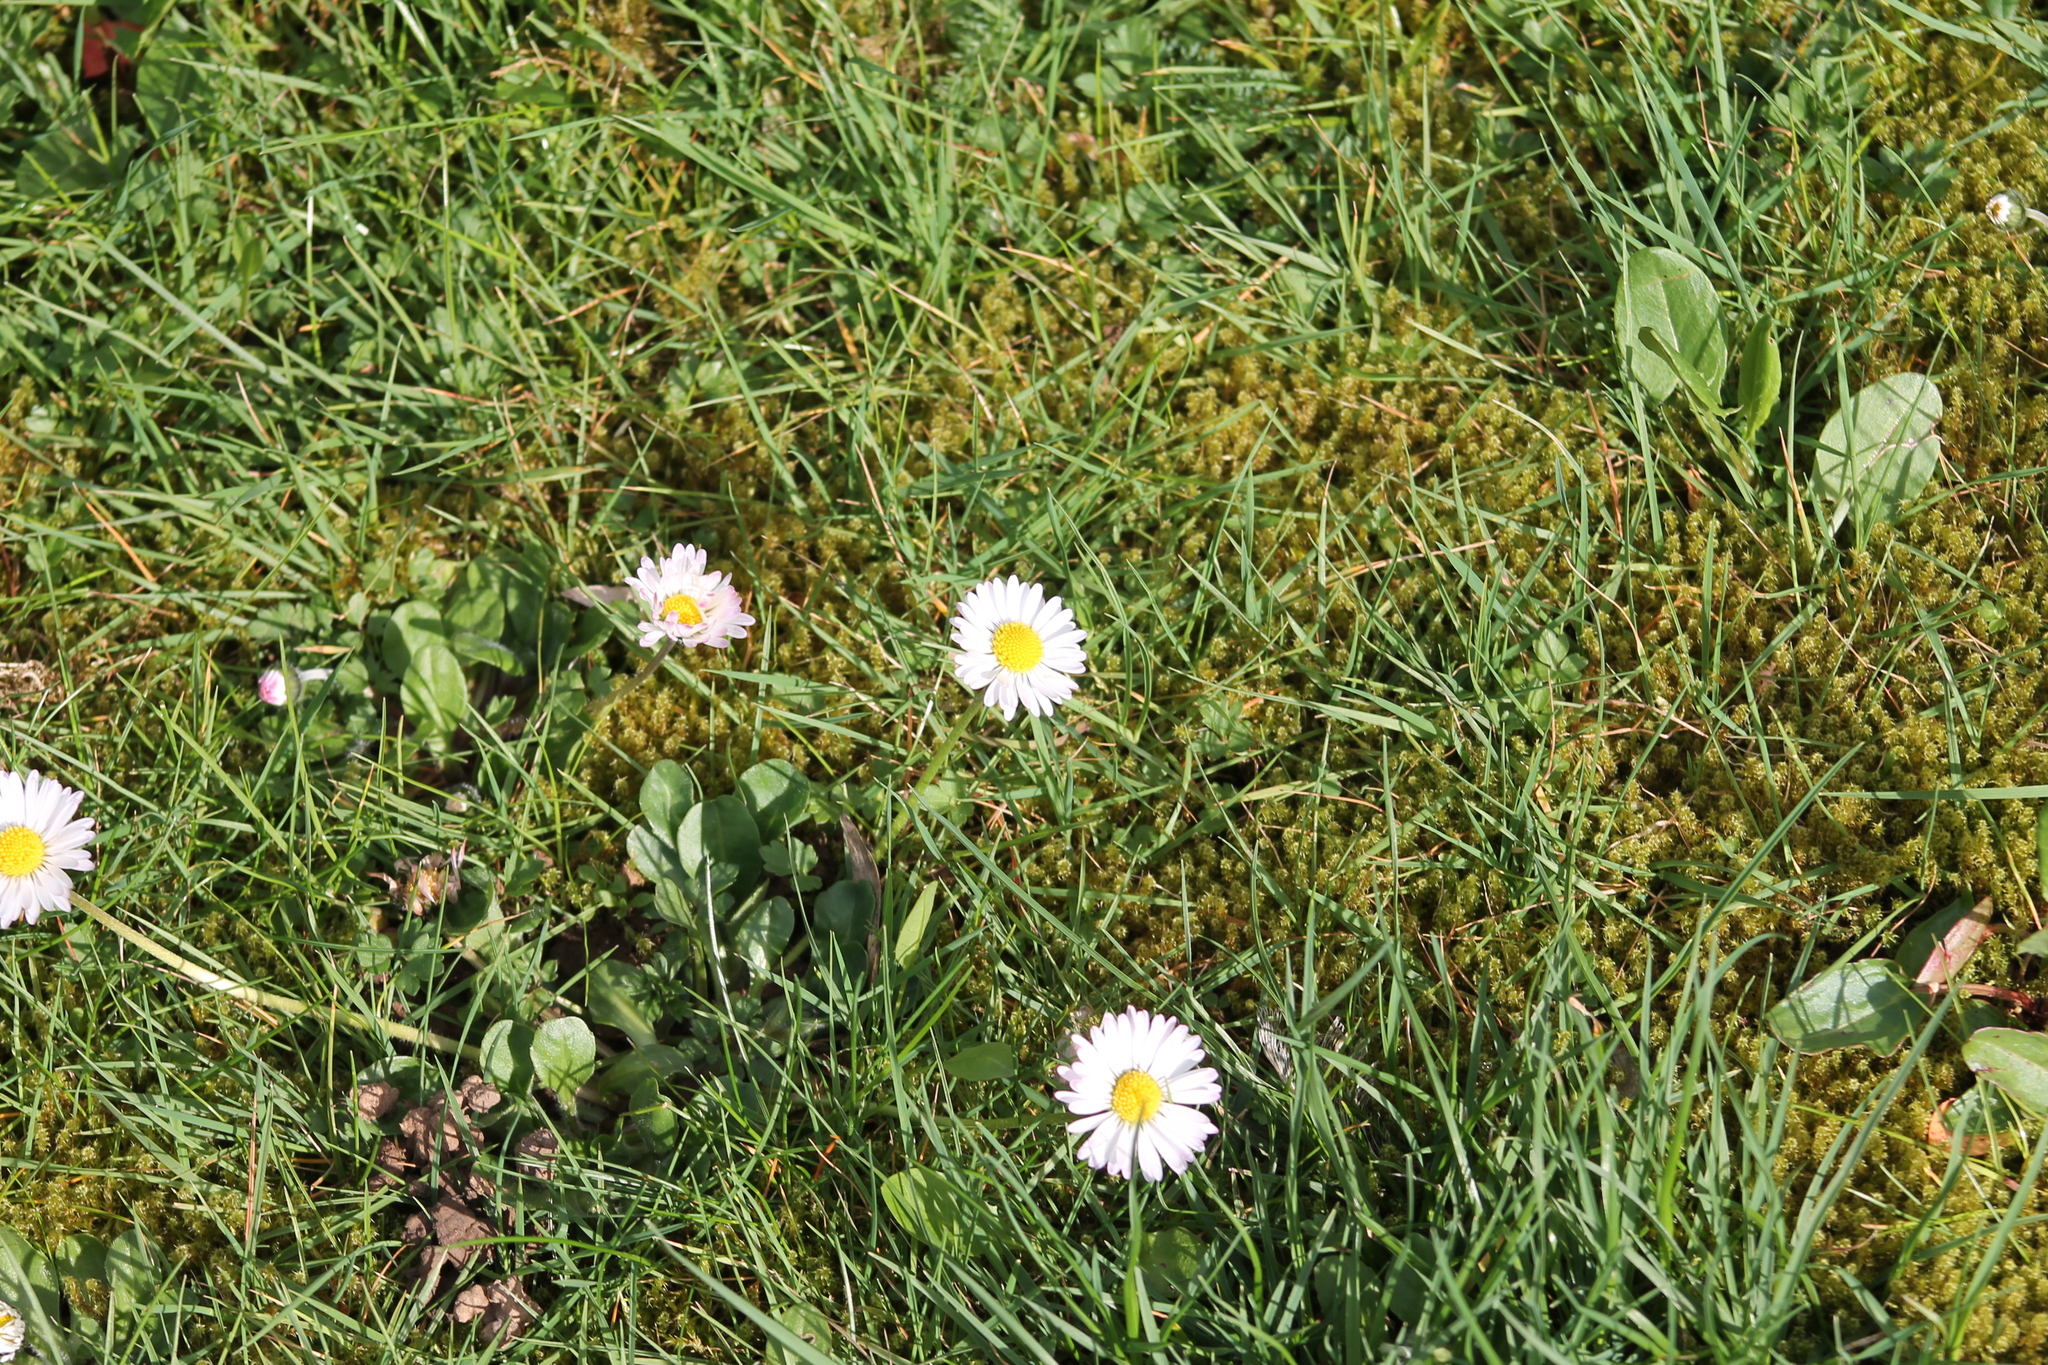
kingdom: Plantae
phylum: Tracheophyta
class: Magnoliopsida
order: Asterales
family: Asteraceae
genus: Bellis
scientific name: Bellis perennis
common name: Lawndaisy
